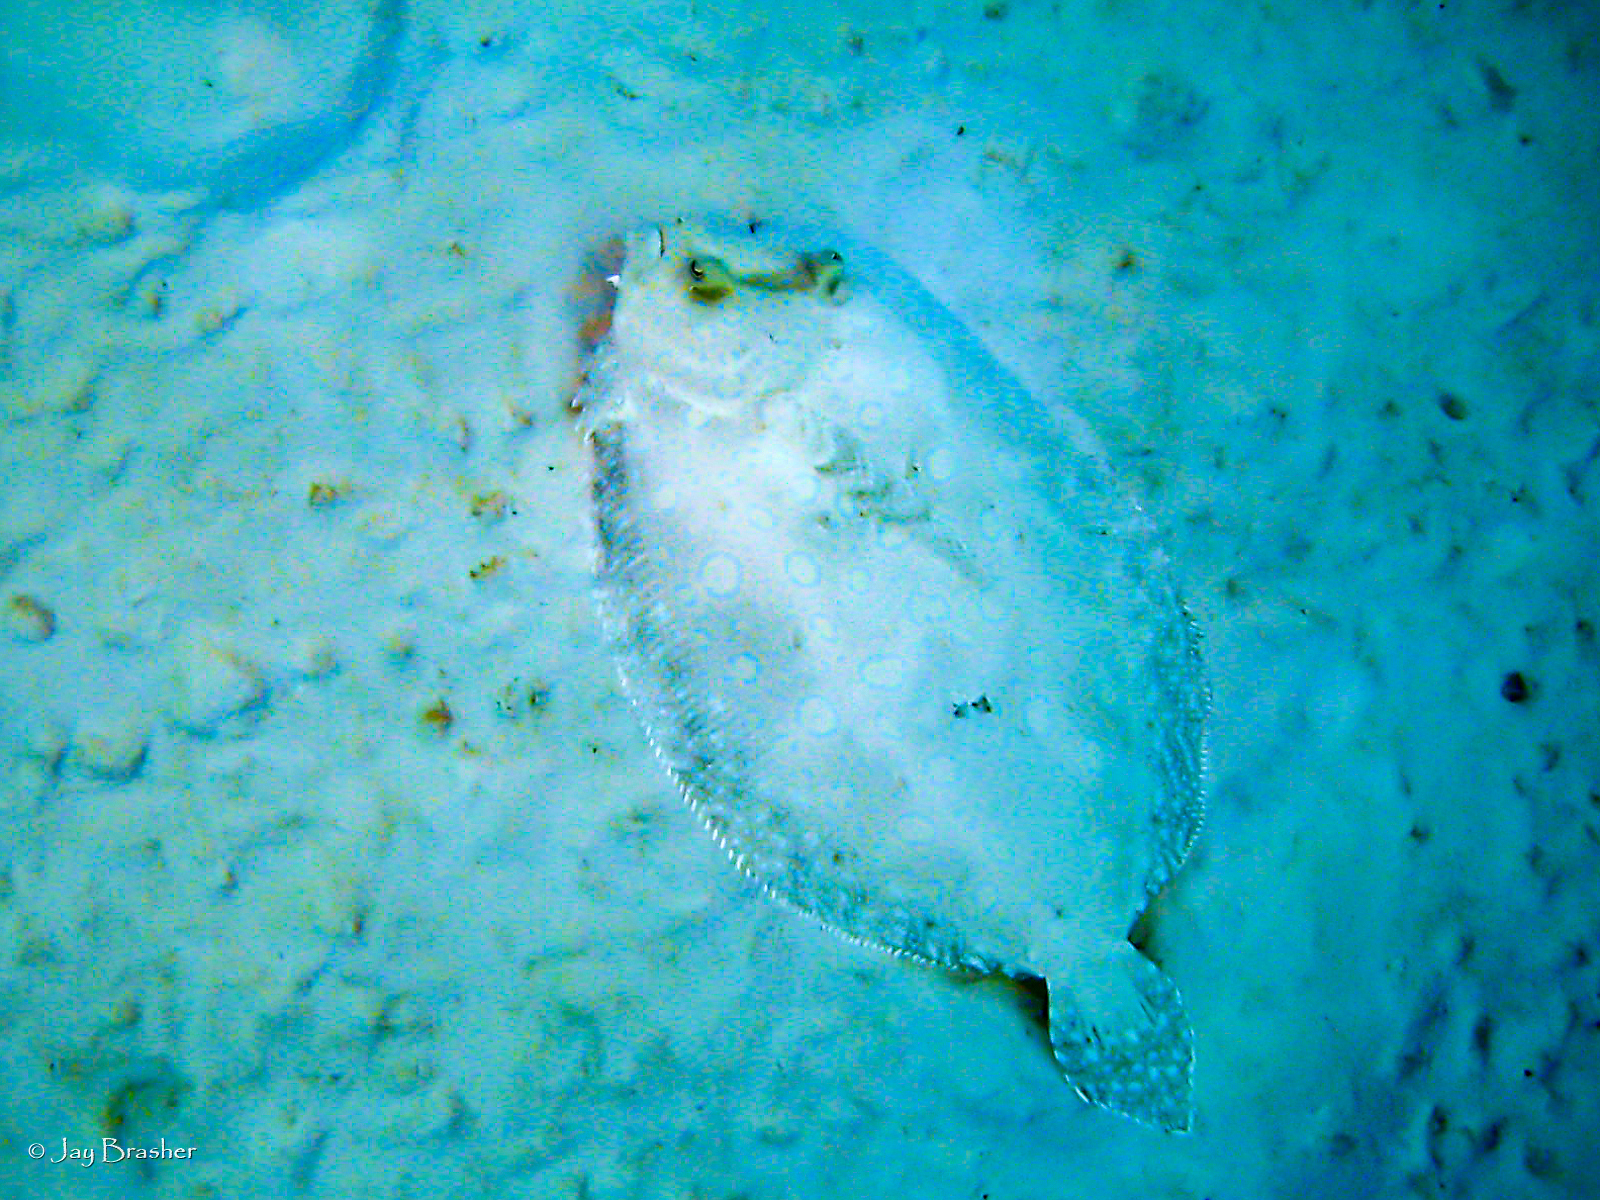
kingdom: Animalia
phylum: Chordata
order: Pleuronectiformes
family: Bothidae
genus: Bothus
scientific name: Bothus lunatus
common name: Peacock flounder
